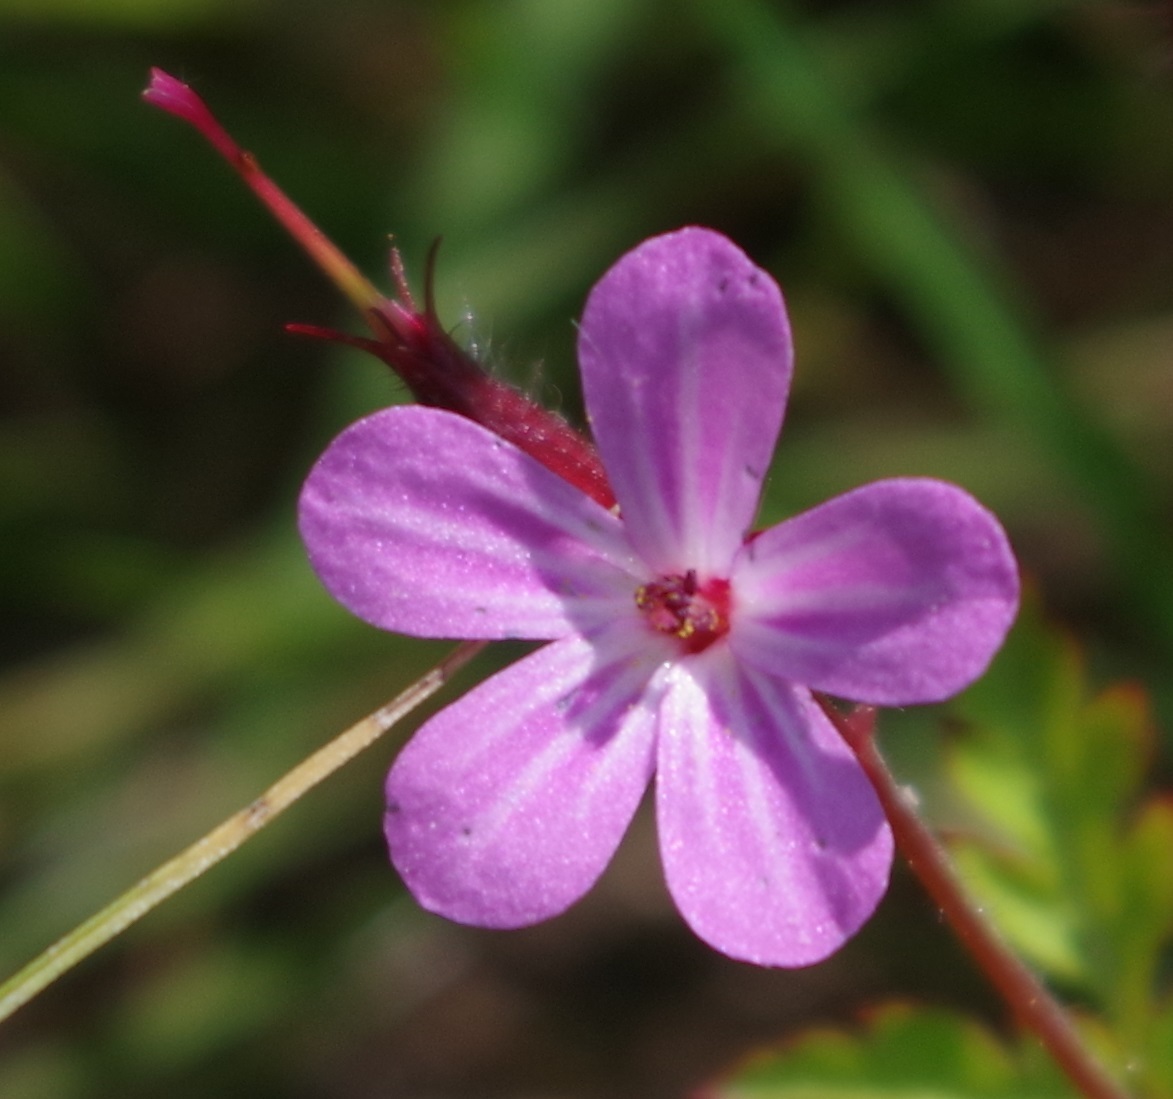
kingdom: Plantae
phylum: Tracheophyta
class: Magnoliopsida
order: Geraniales
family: Geraniaceae
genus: Geranium
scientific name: Geranium robertianum
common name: Herb-robert
